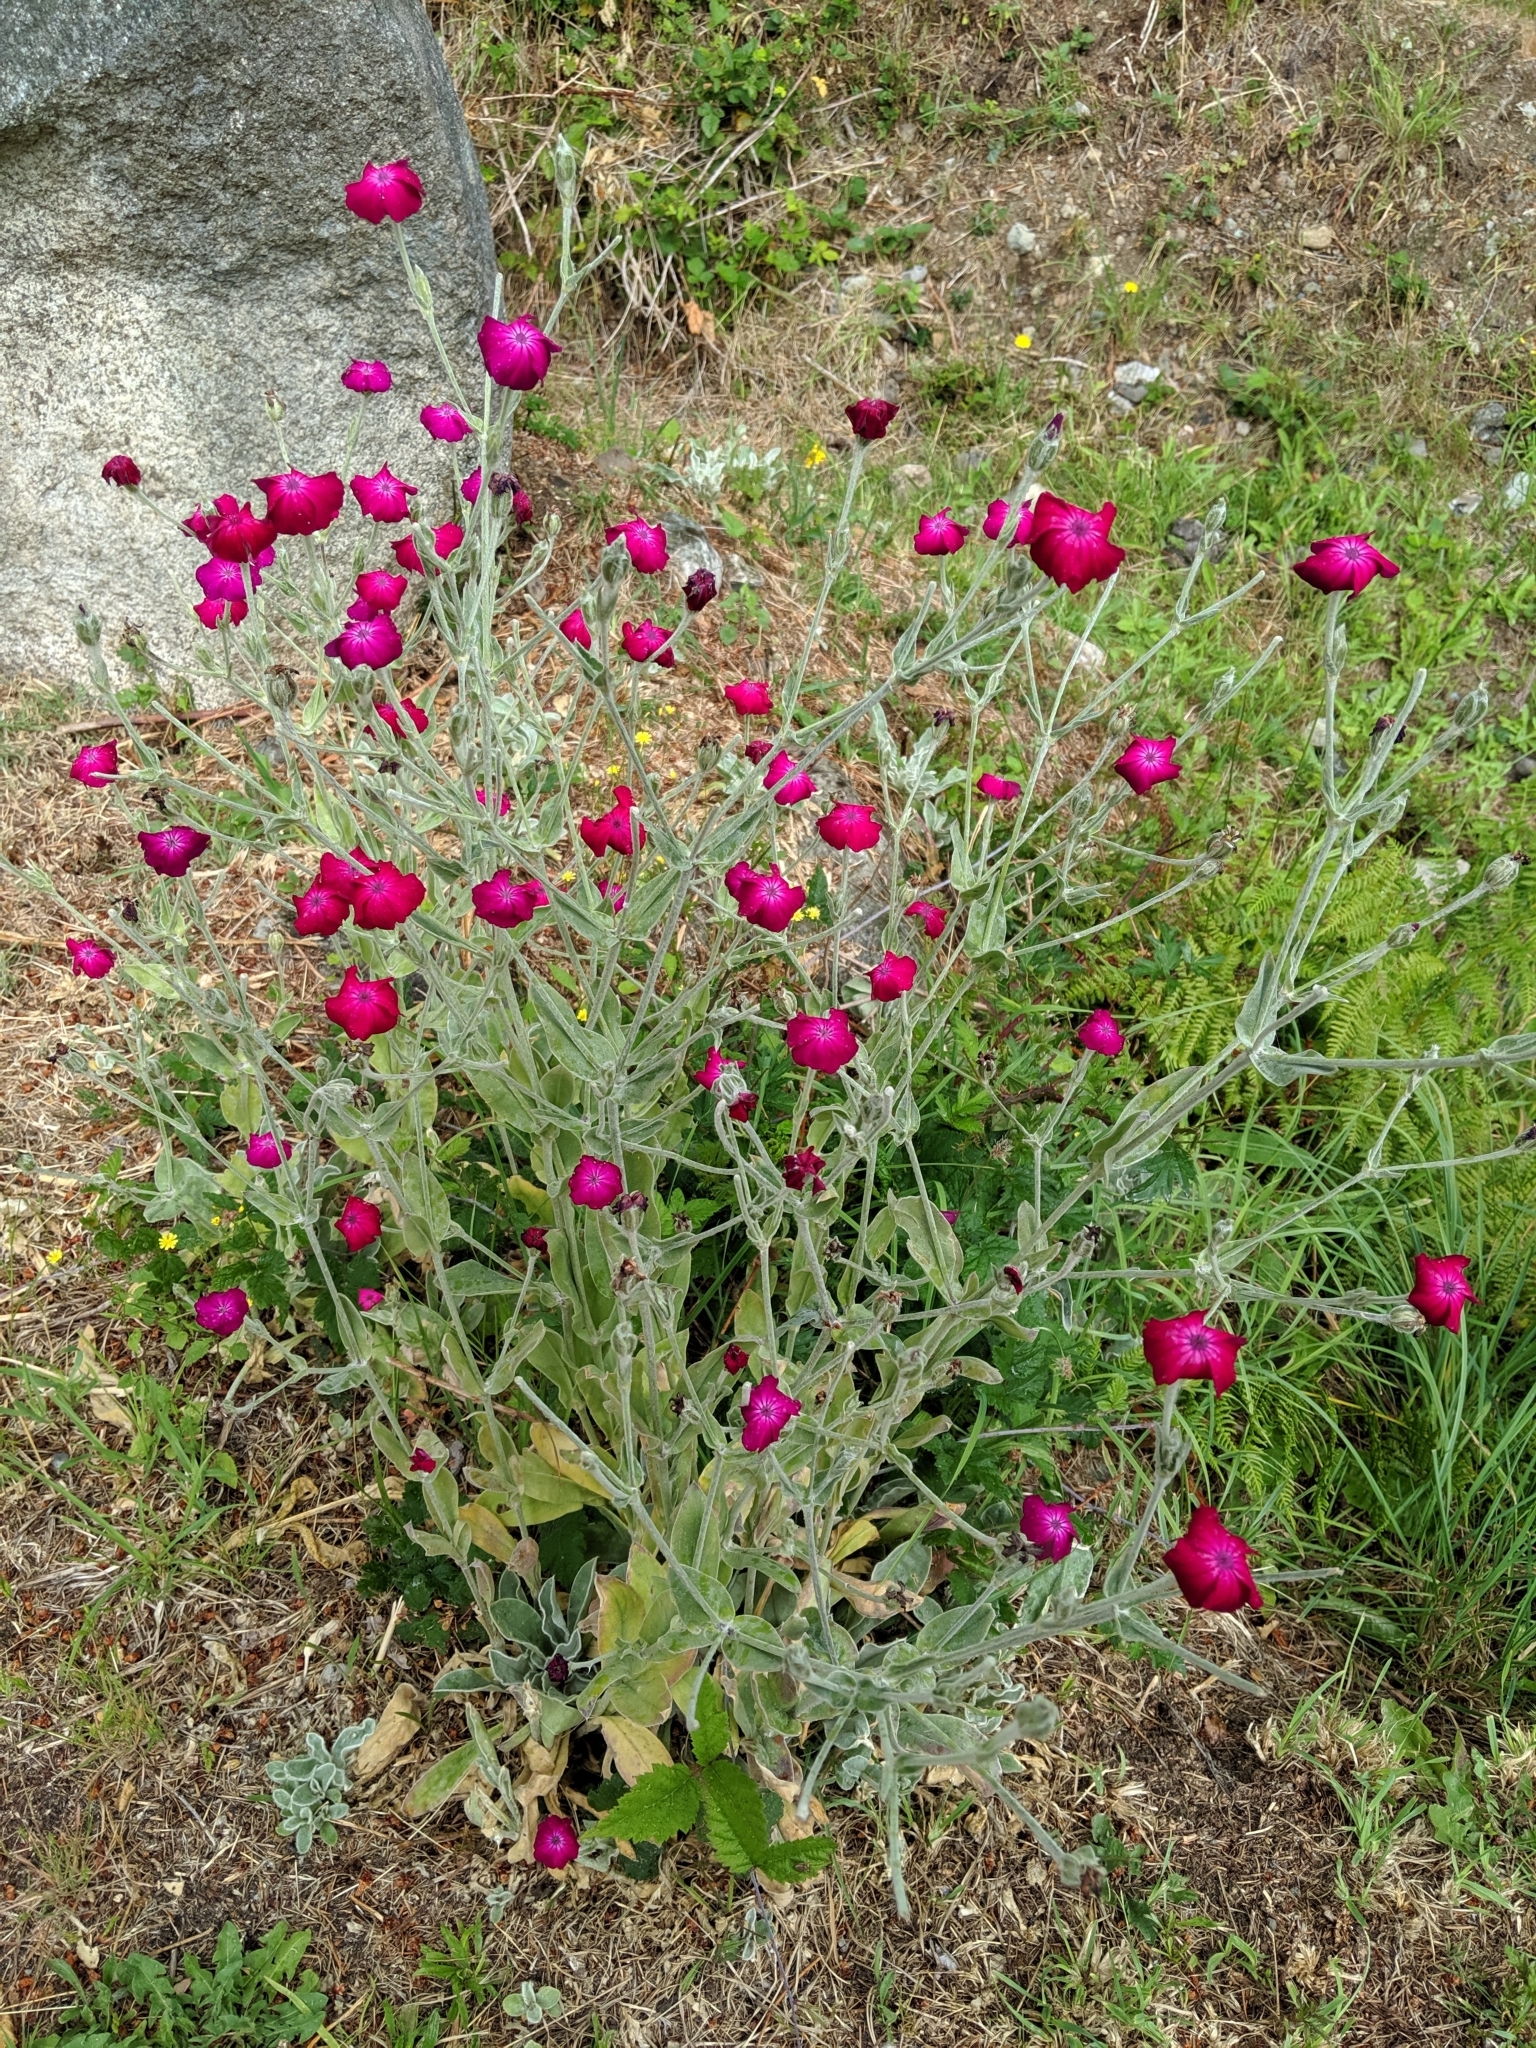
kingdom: Plantae
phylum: Tracheophyta
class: Magnoliopsida
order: Caryophyllales
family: Caryophyllaceae
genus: Silene
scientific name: Silene coronaria
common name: Rose campion
